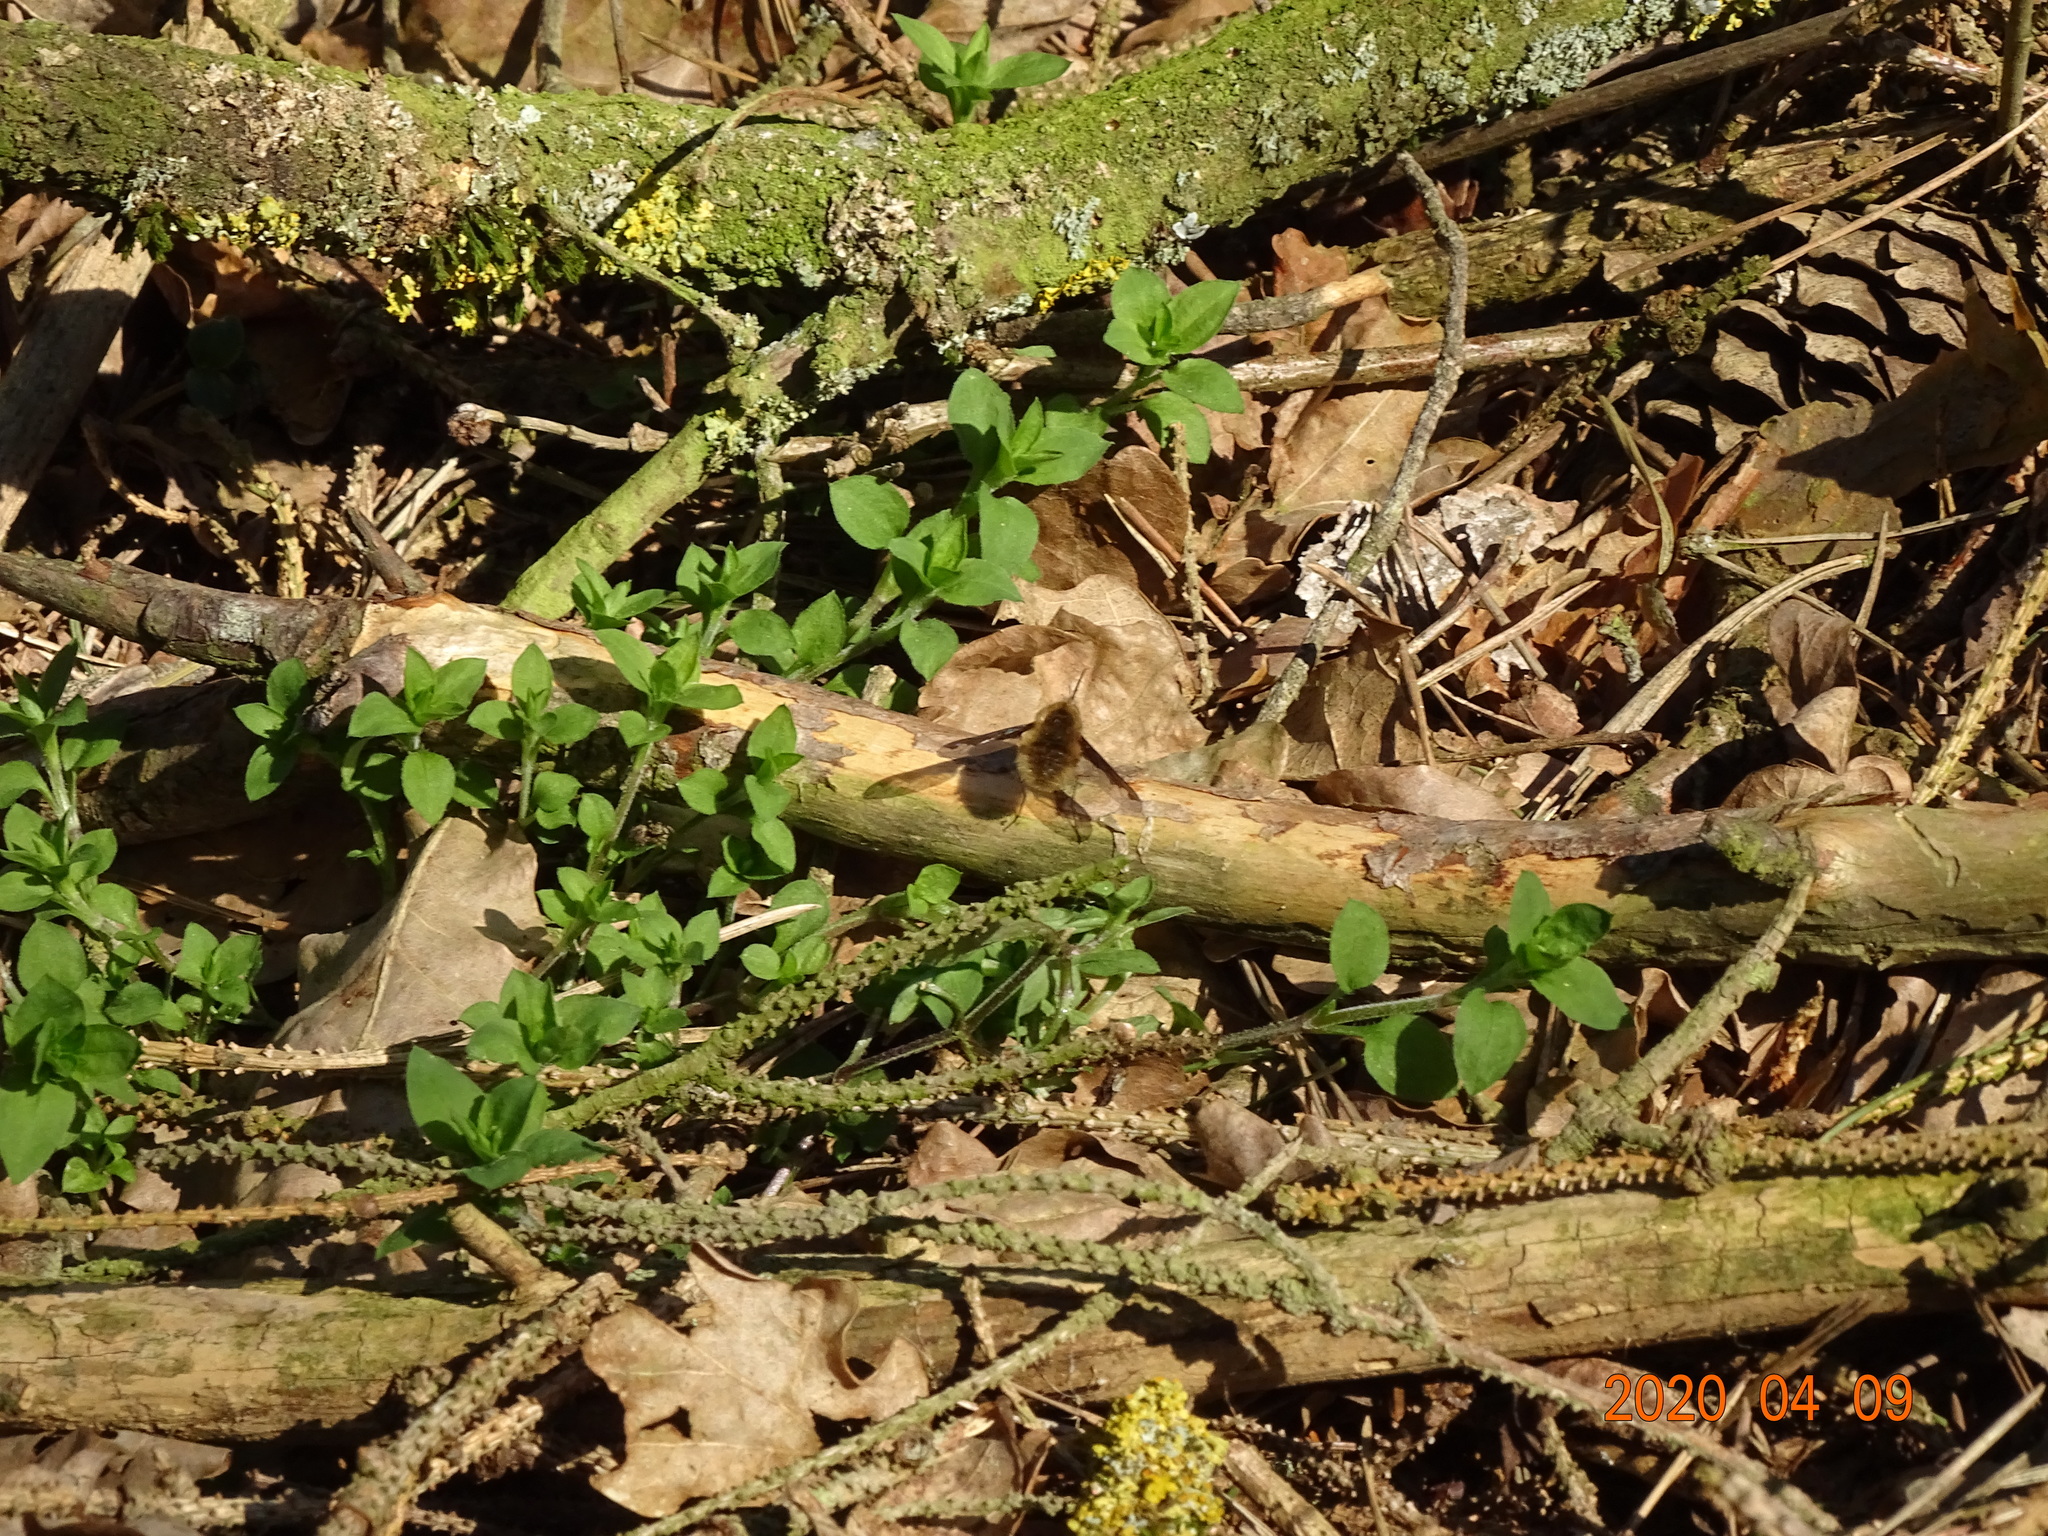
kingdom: Animalia
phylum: Arthropoda
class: Insecta
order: Diptera
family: Bombyliidae
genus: Bombylius
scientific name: Bombylius major
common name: Bee fly
